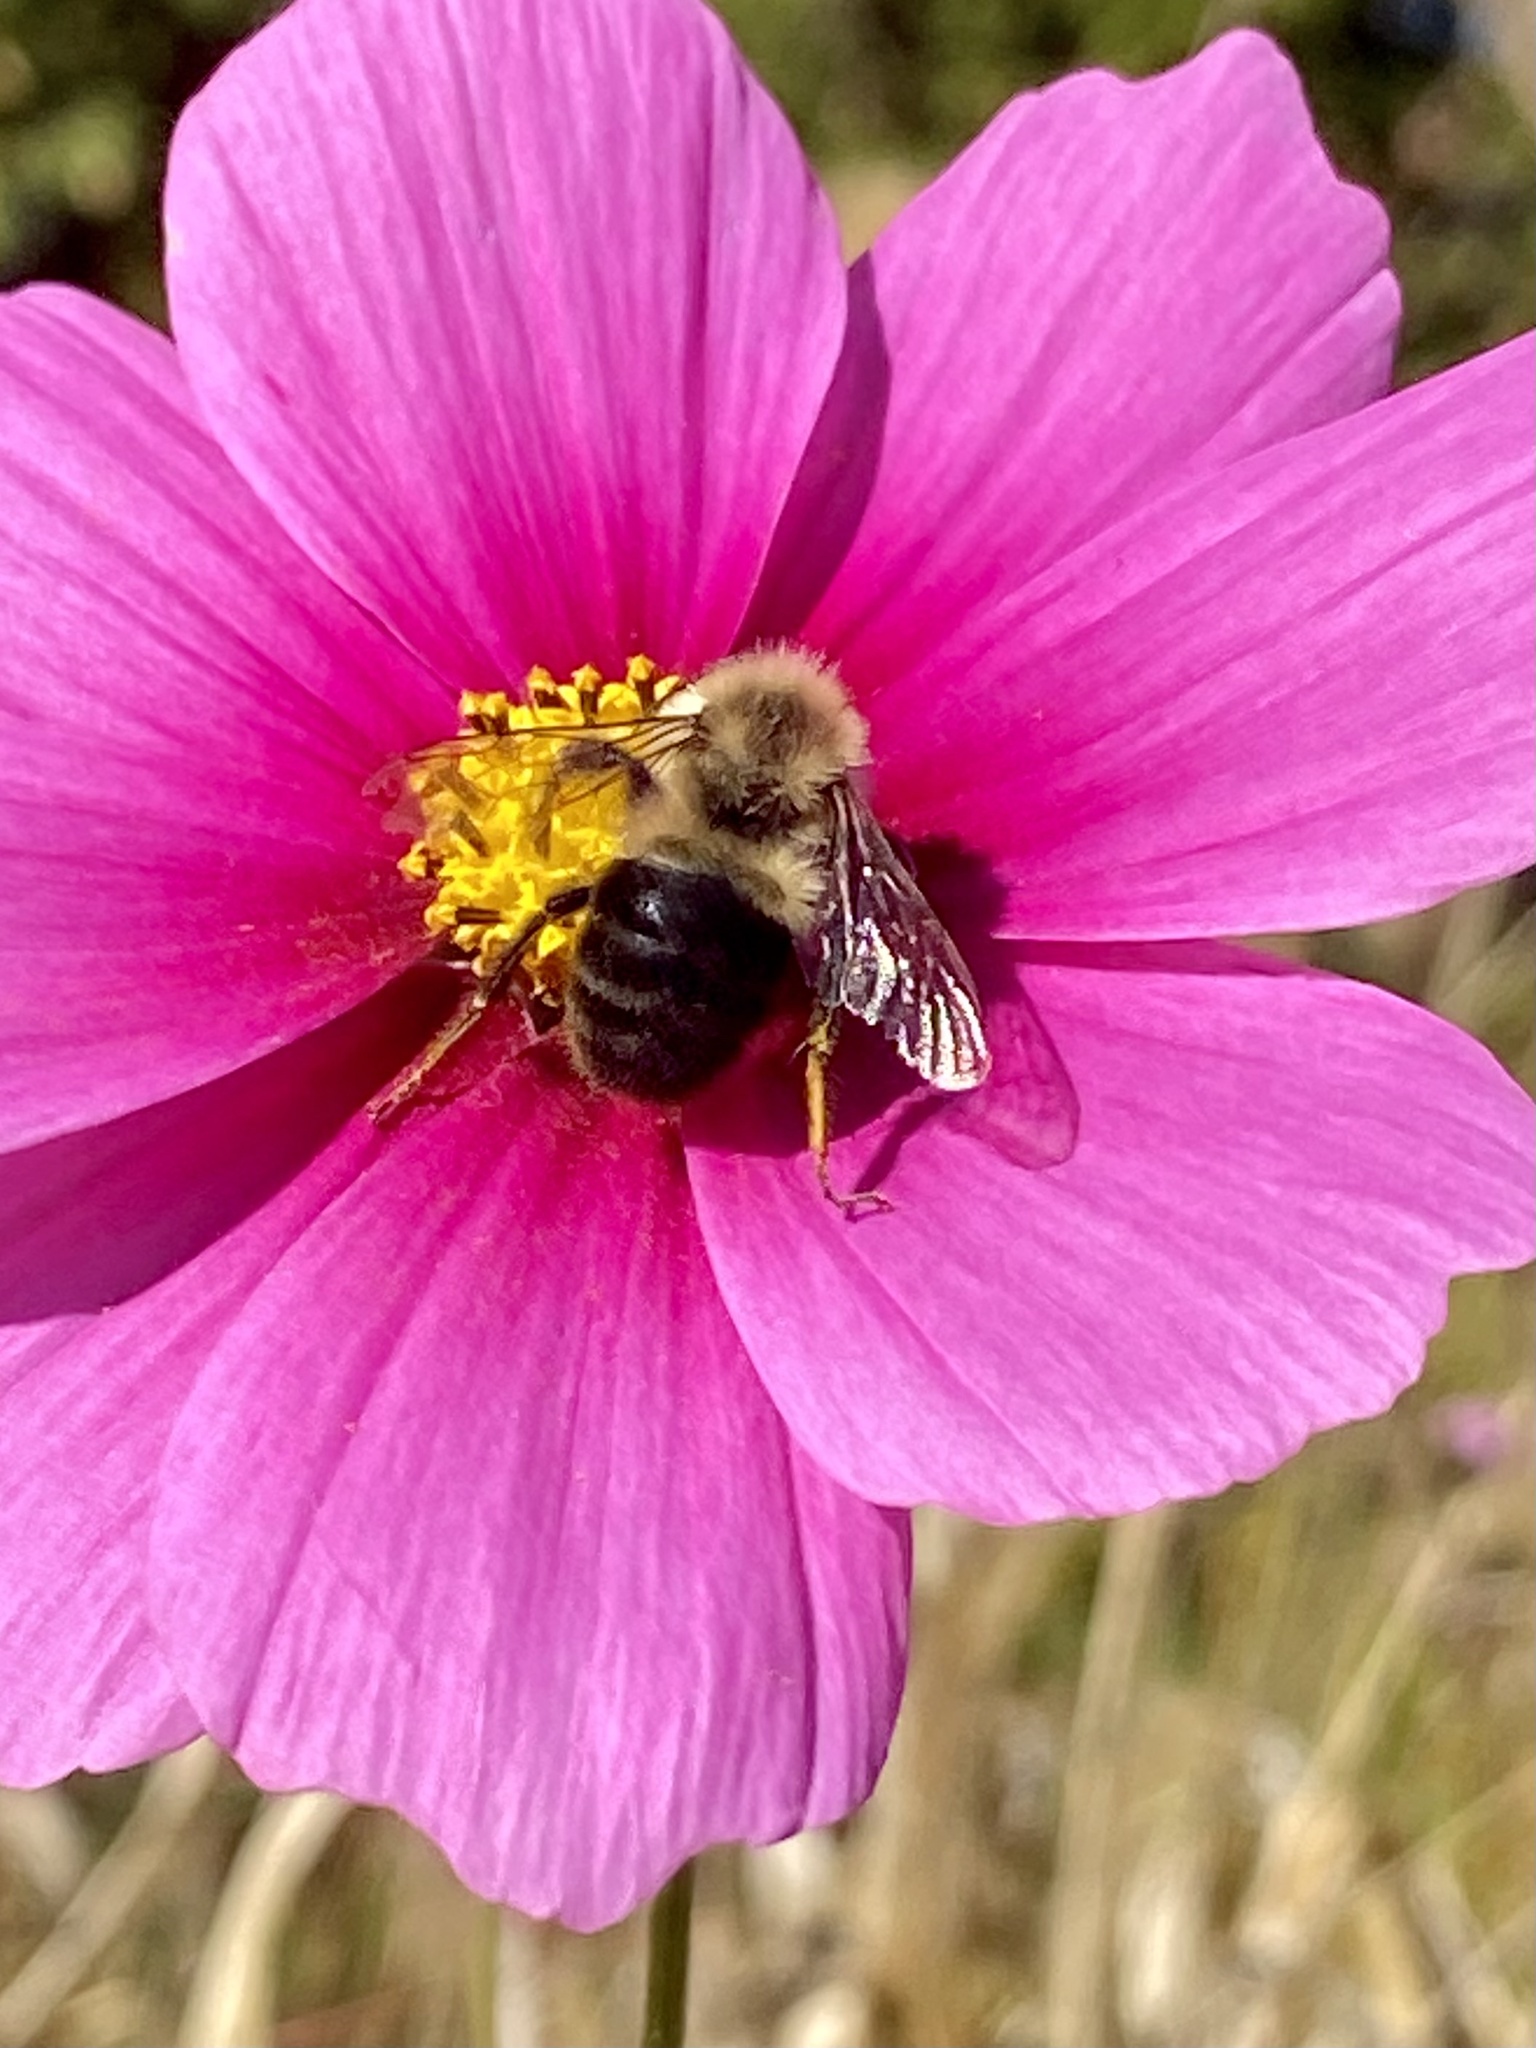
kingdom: Animalia
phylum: Arthropoda
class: Insecta
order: Hymenoptera
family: Apidae
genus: Bombus
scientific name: Bombus impatiens
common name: Common eastern bumble bee
